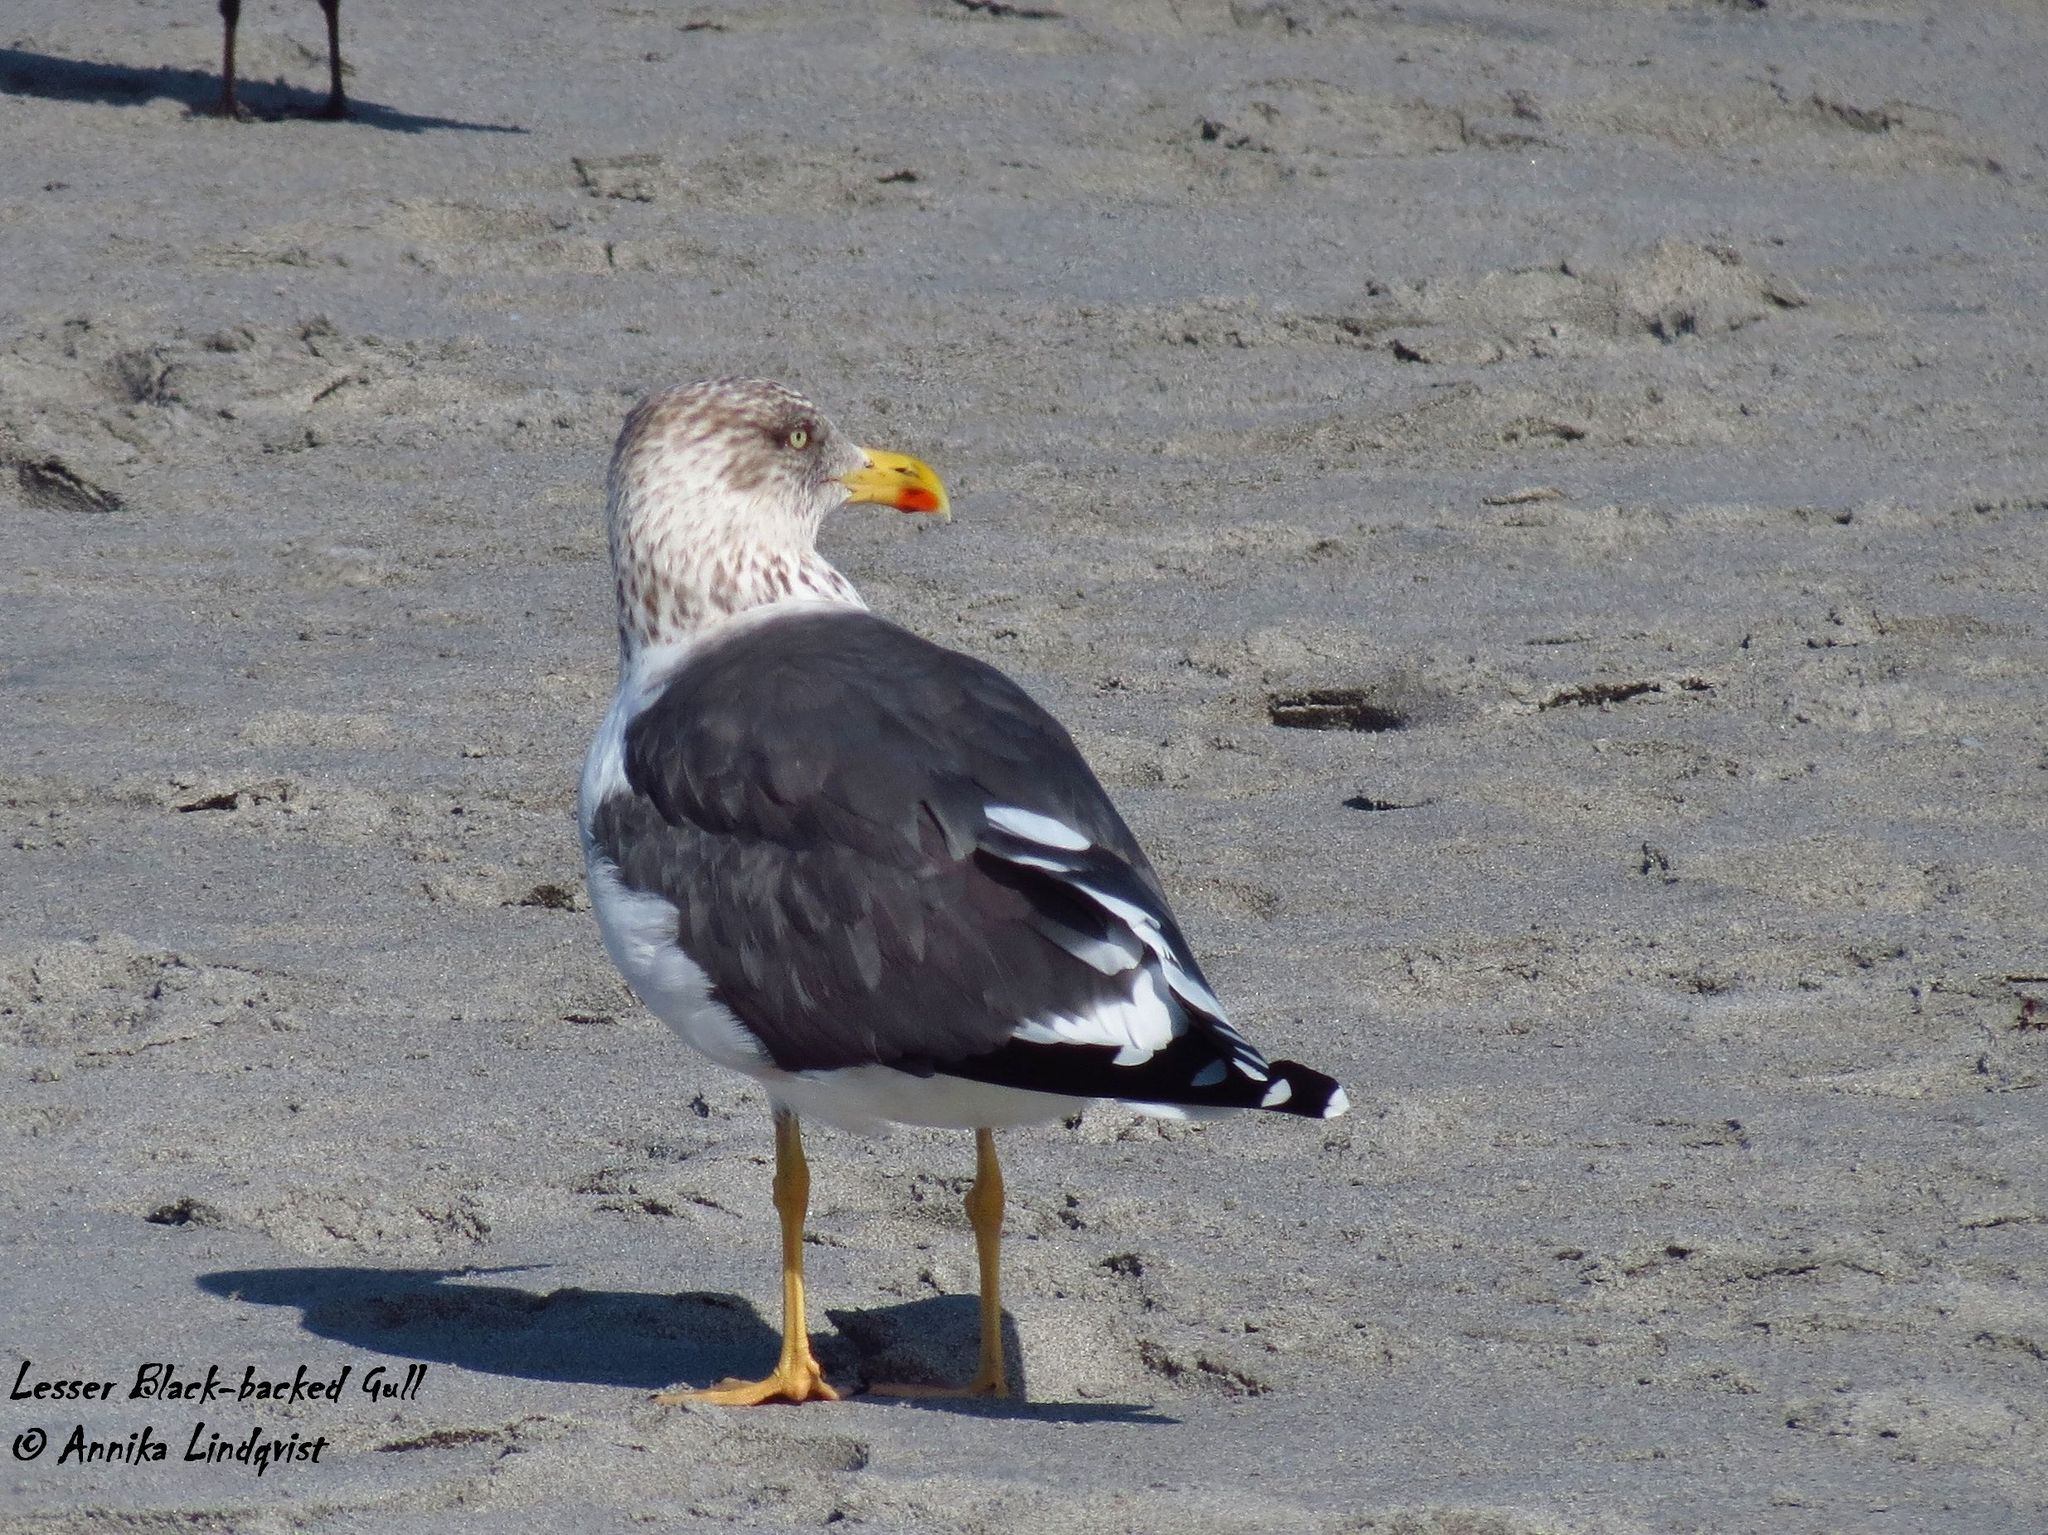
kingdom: Animalia
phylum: Chordata
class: Aves
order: Charadriiformes
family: Laridae
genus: Larus
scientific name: Larus fuscus
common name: Lesser black-backed gull
